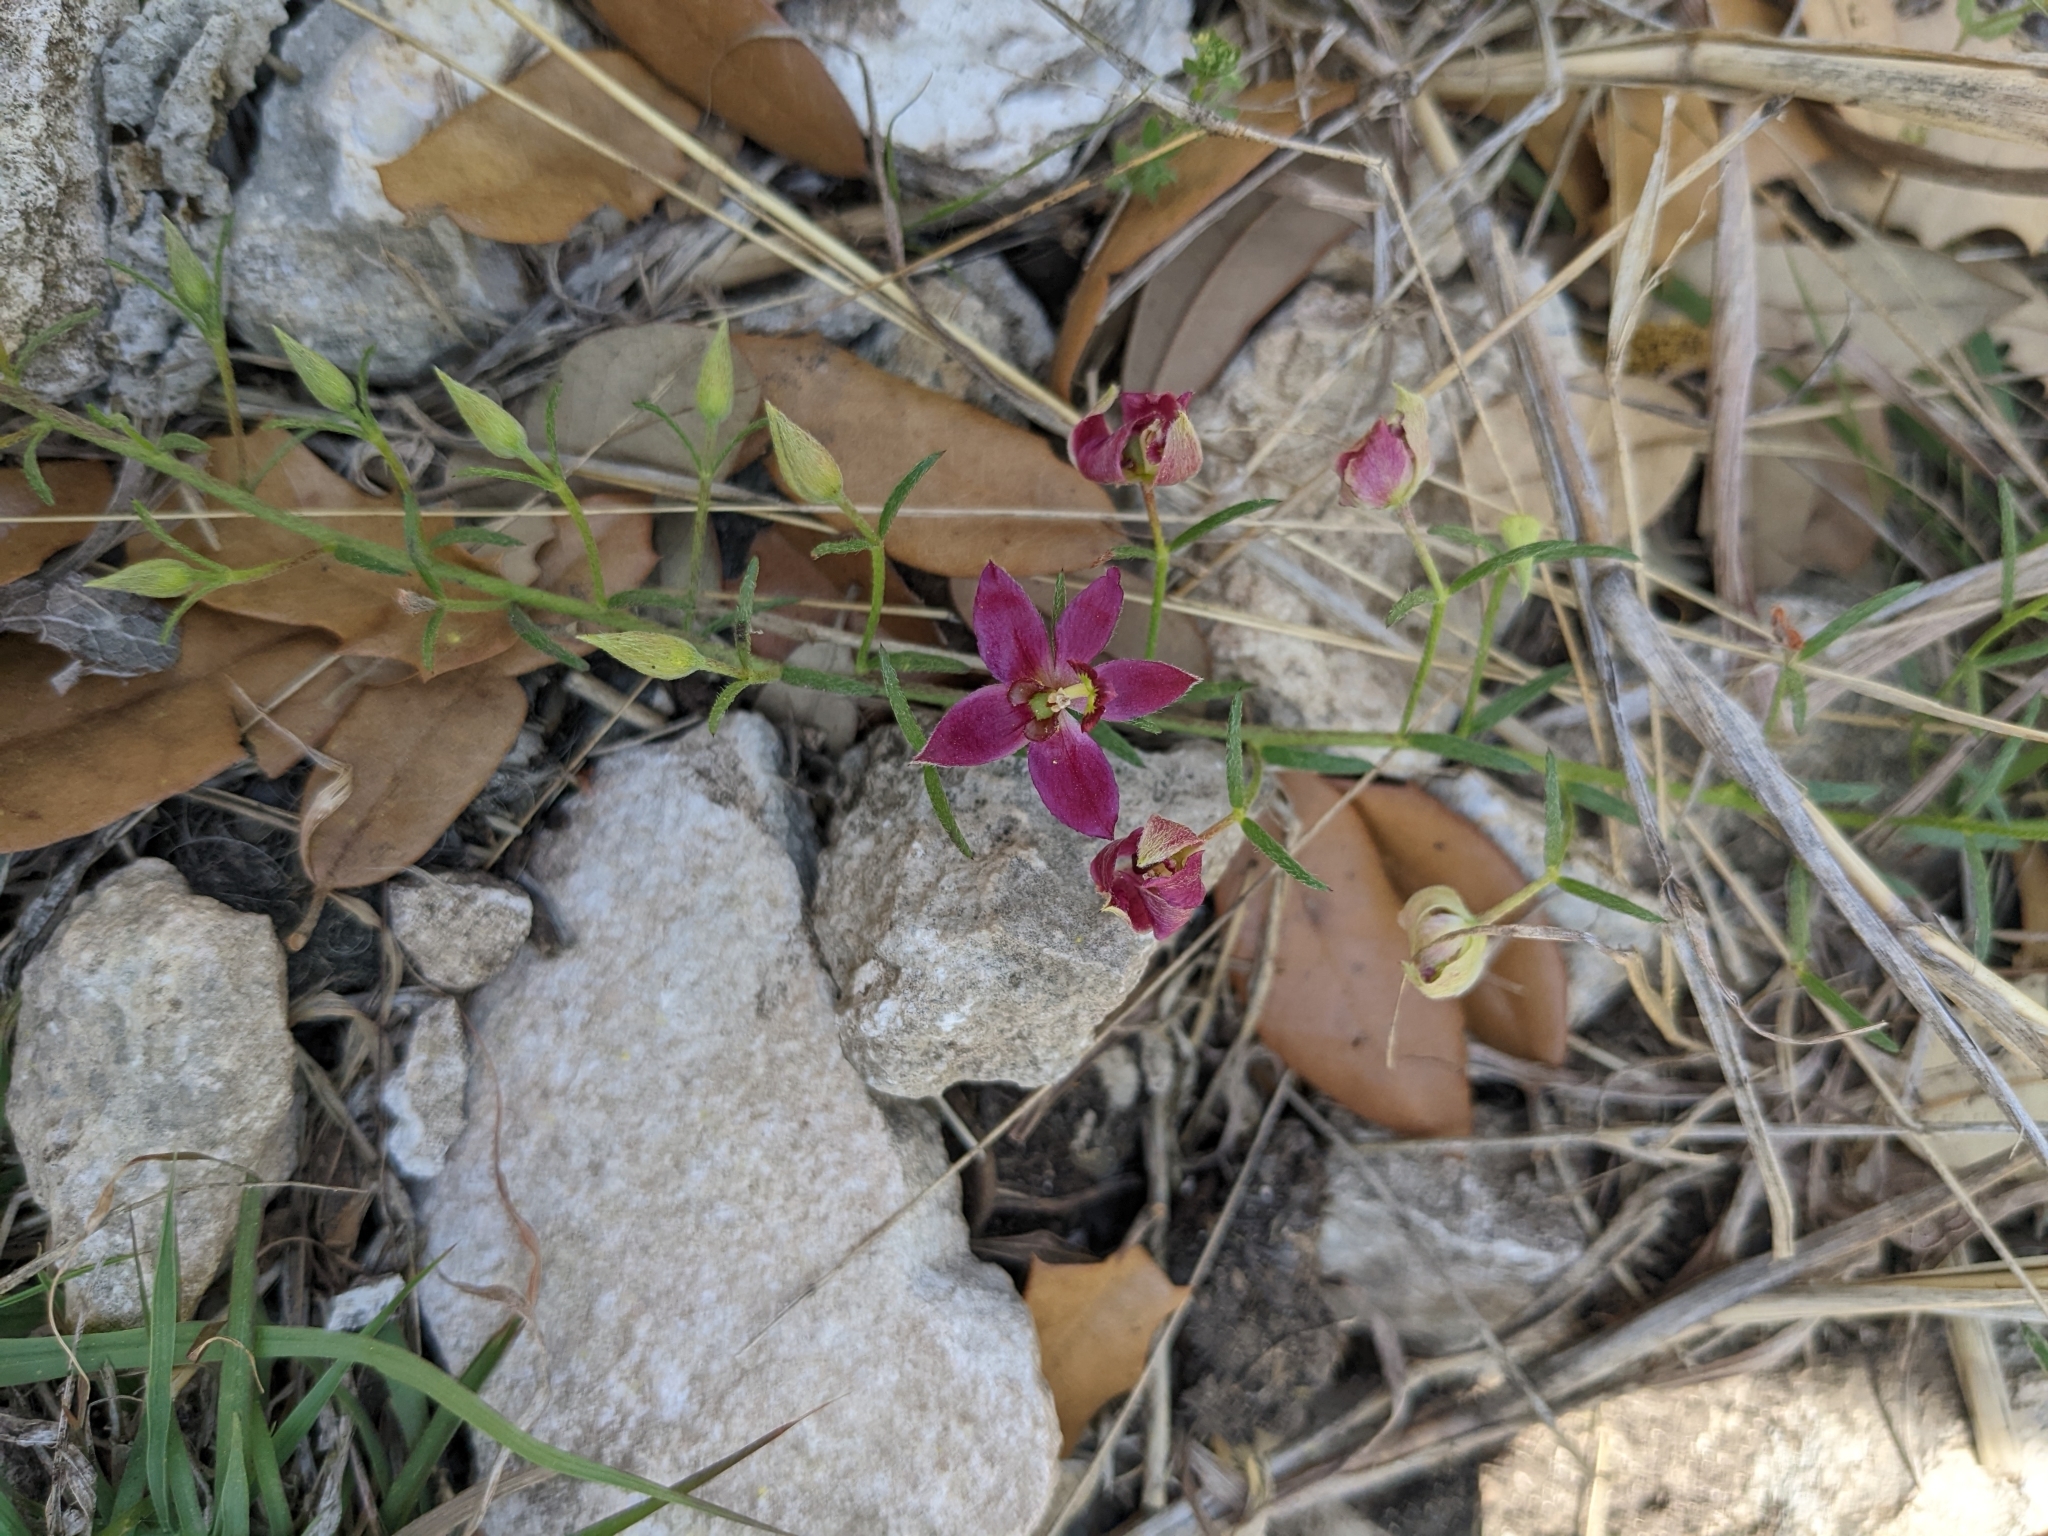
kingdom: Plantae
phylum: Tracheophyta
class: Magnoliopsida
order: Zygophyllales
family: Krameriaceae
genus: Krameria
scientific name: Krameria lanceolata
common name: Ratany
